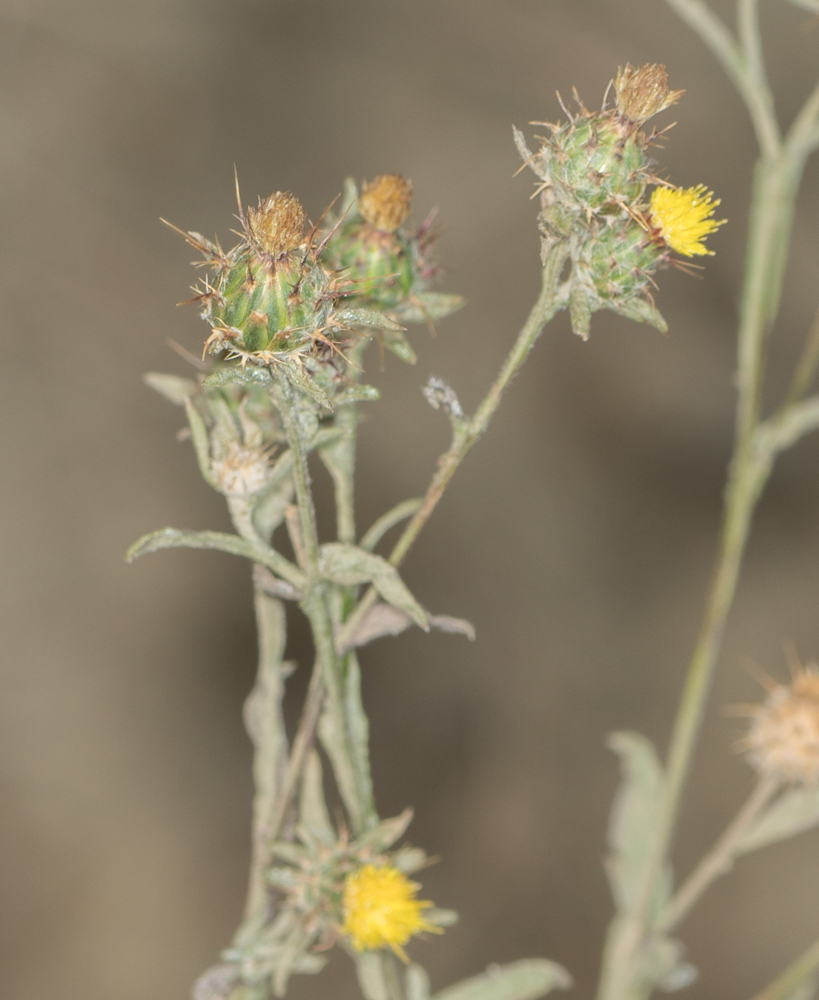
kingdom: Plantae
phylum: Tracheophyta
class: Magnoliopsida
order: Asterales
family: Asteraceae
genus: Centaurea
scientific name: Centaurea melitensis
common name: Maltese star-thistle
